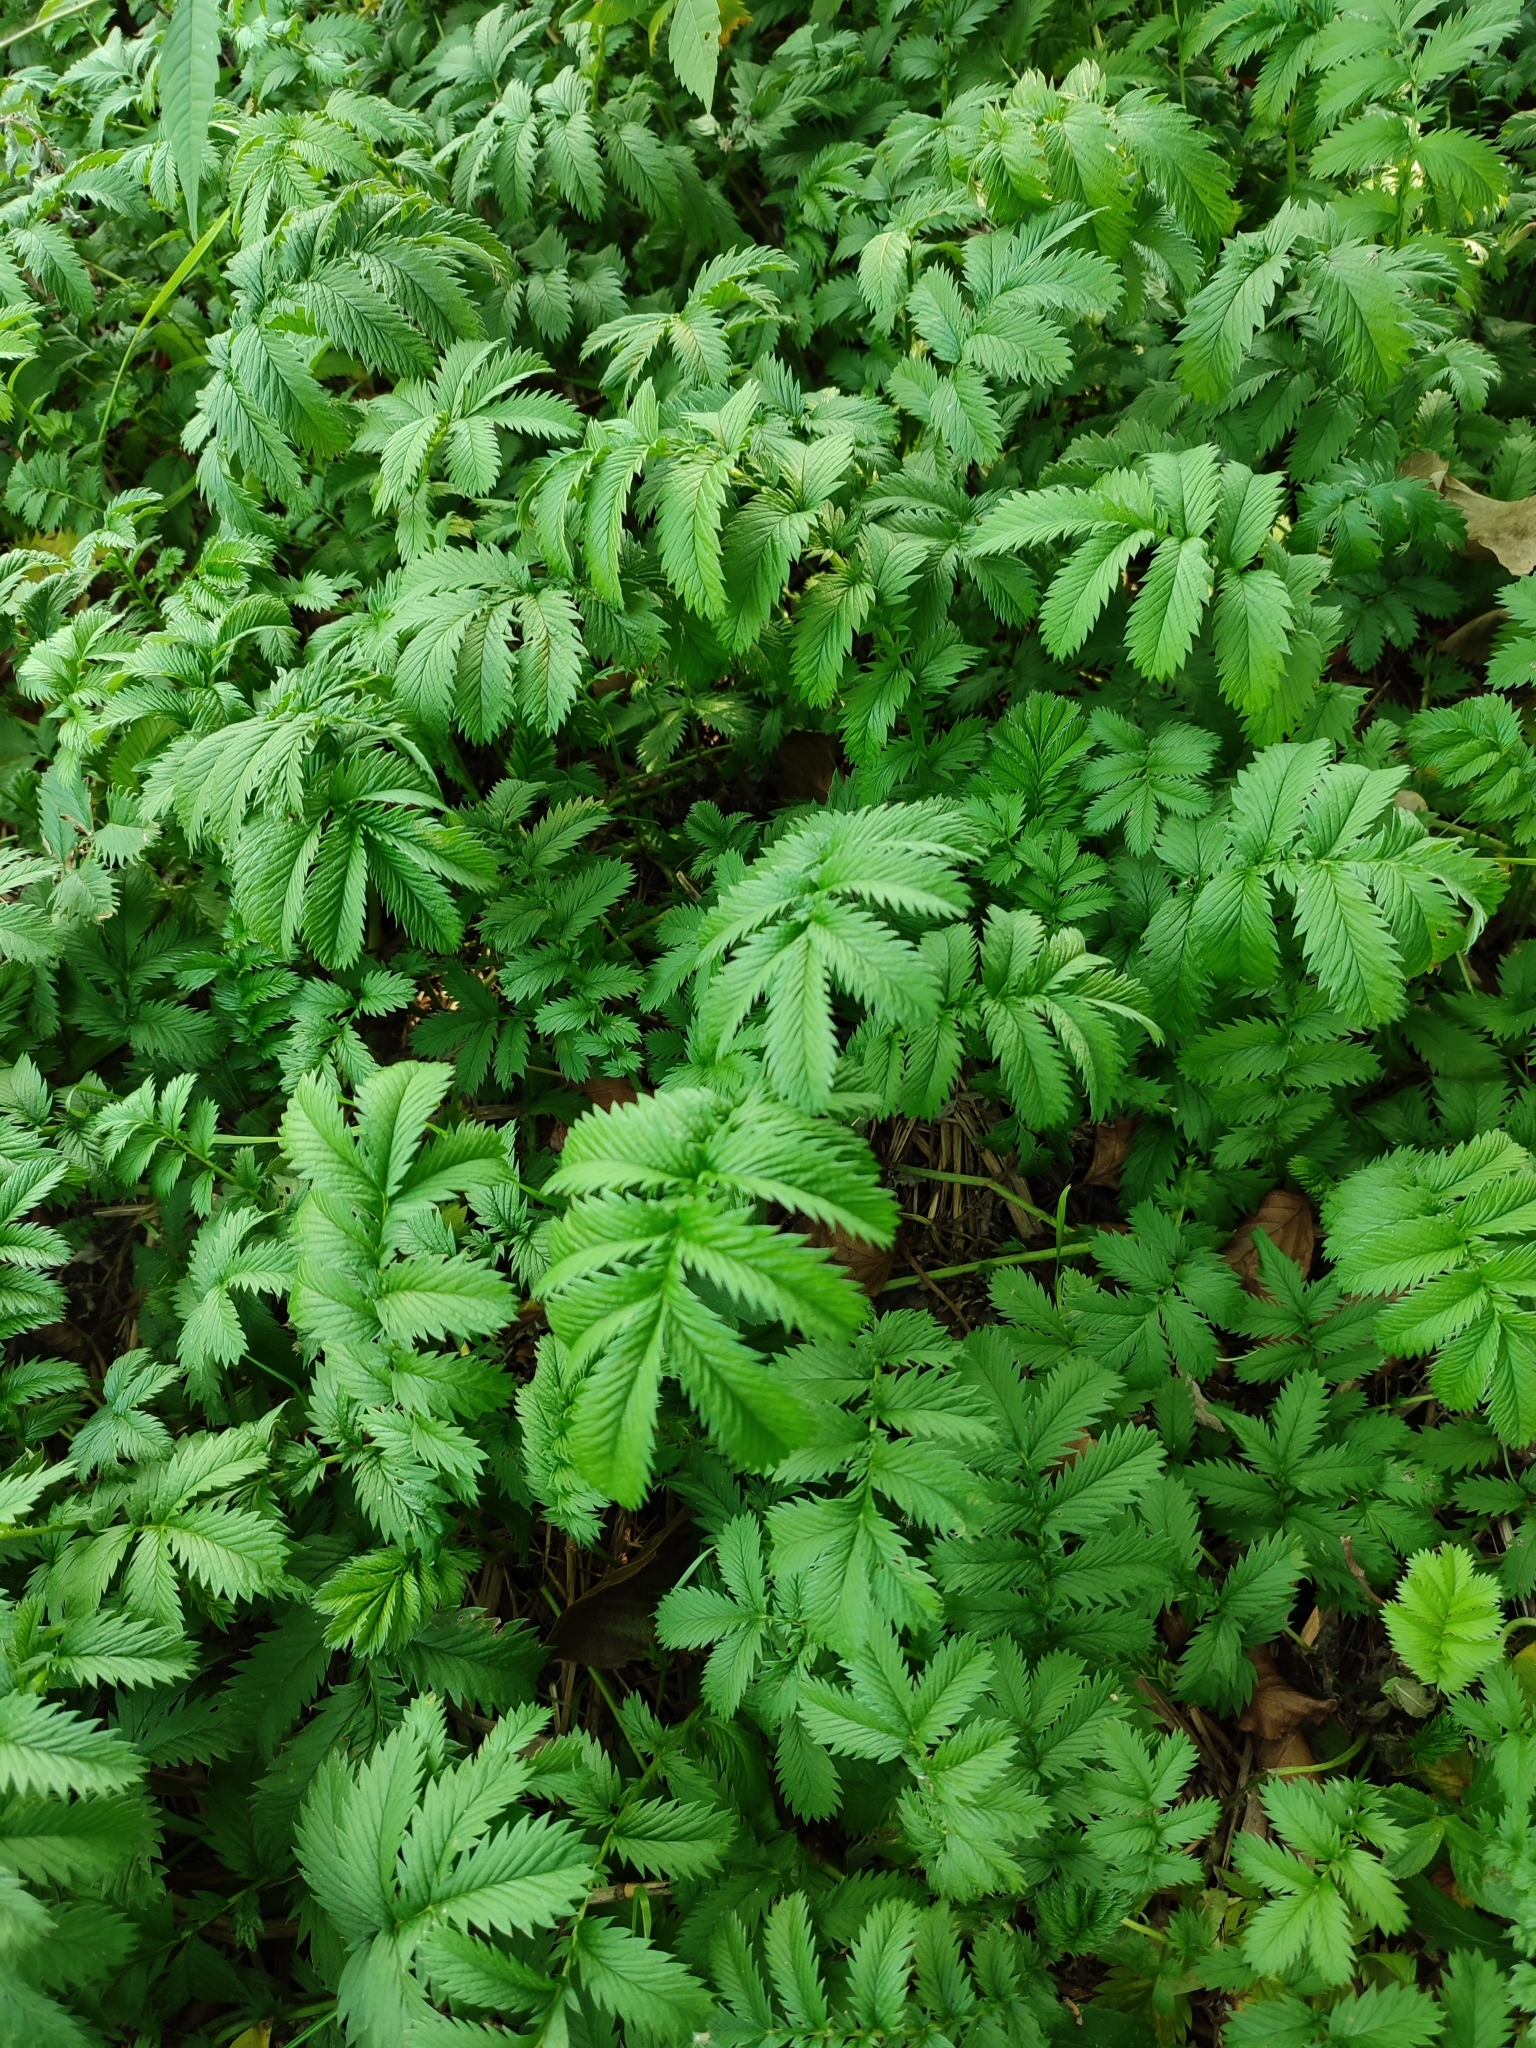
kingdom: Plantae
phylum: Tracheophyta
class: Magnoliopsida
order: Rosales
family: Rosaceae
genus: Argentina
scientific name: Argentina anserina
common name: Common silverweed
